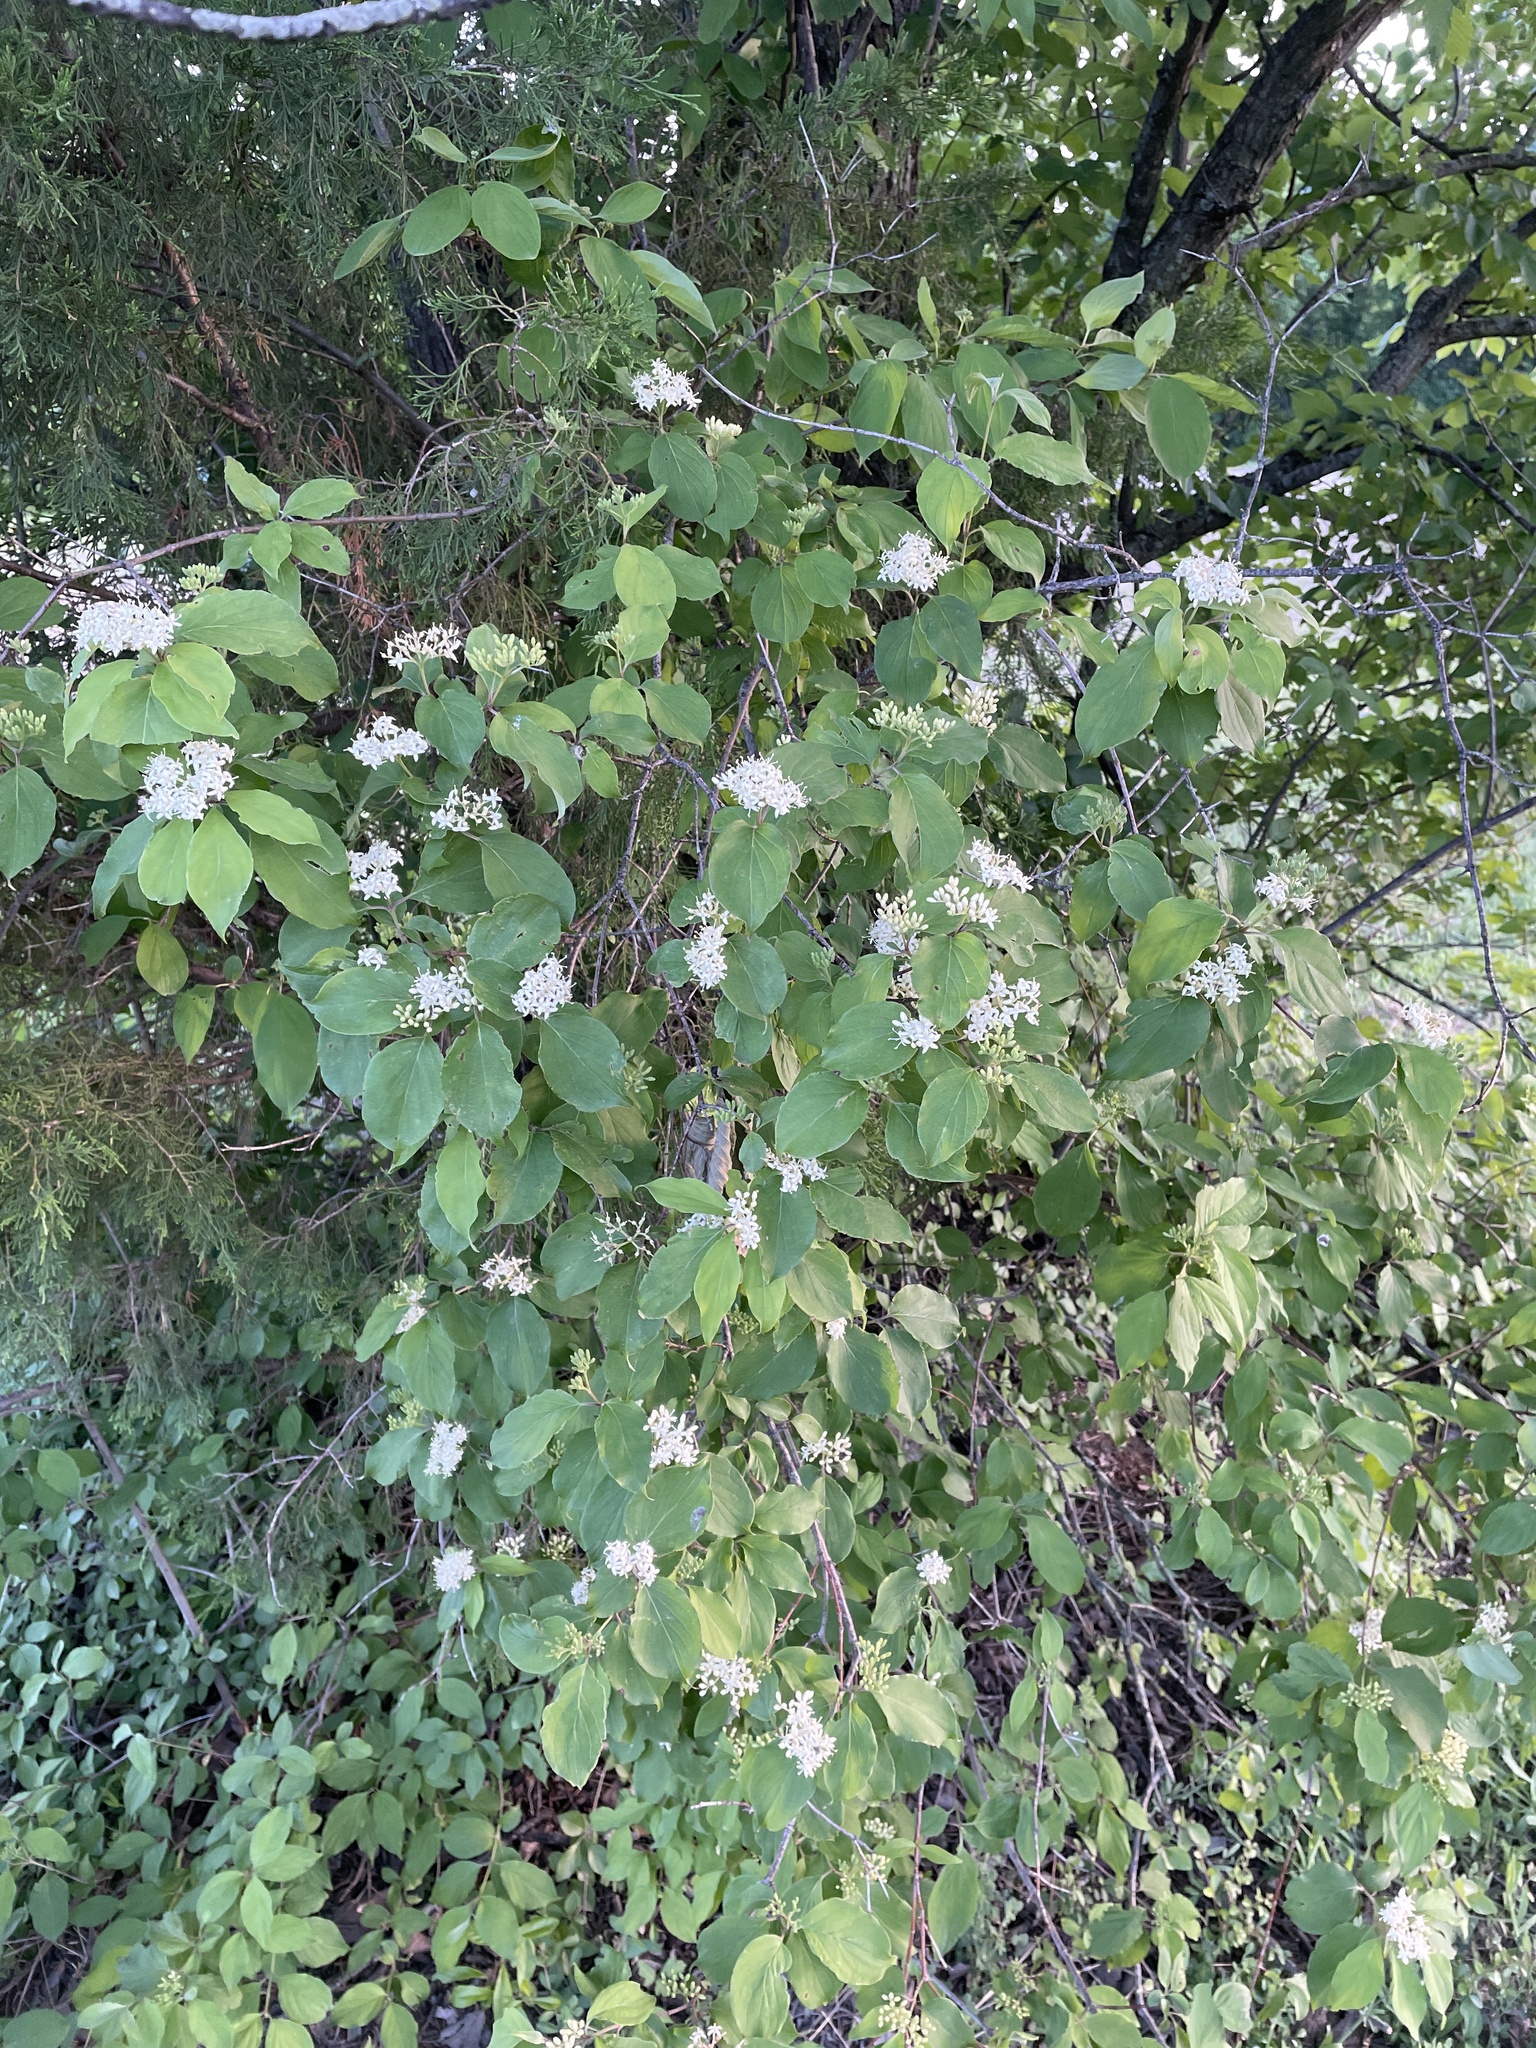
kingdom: Plantae
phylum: Tracheophyta
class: Magnoliopsida
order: Cornales
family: Cornaceae
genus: Cornus
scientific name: Cornus drummondii
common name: Rough-leaf dogwood
